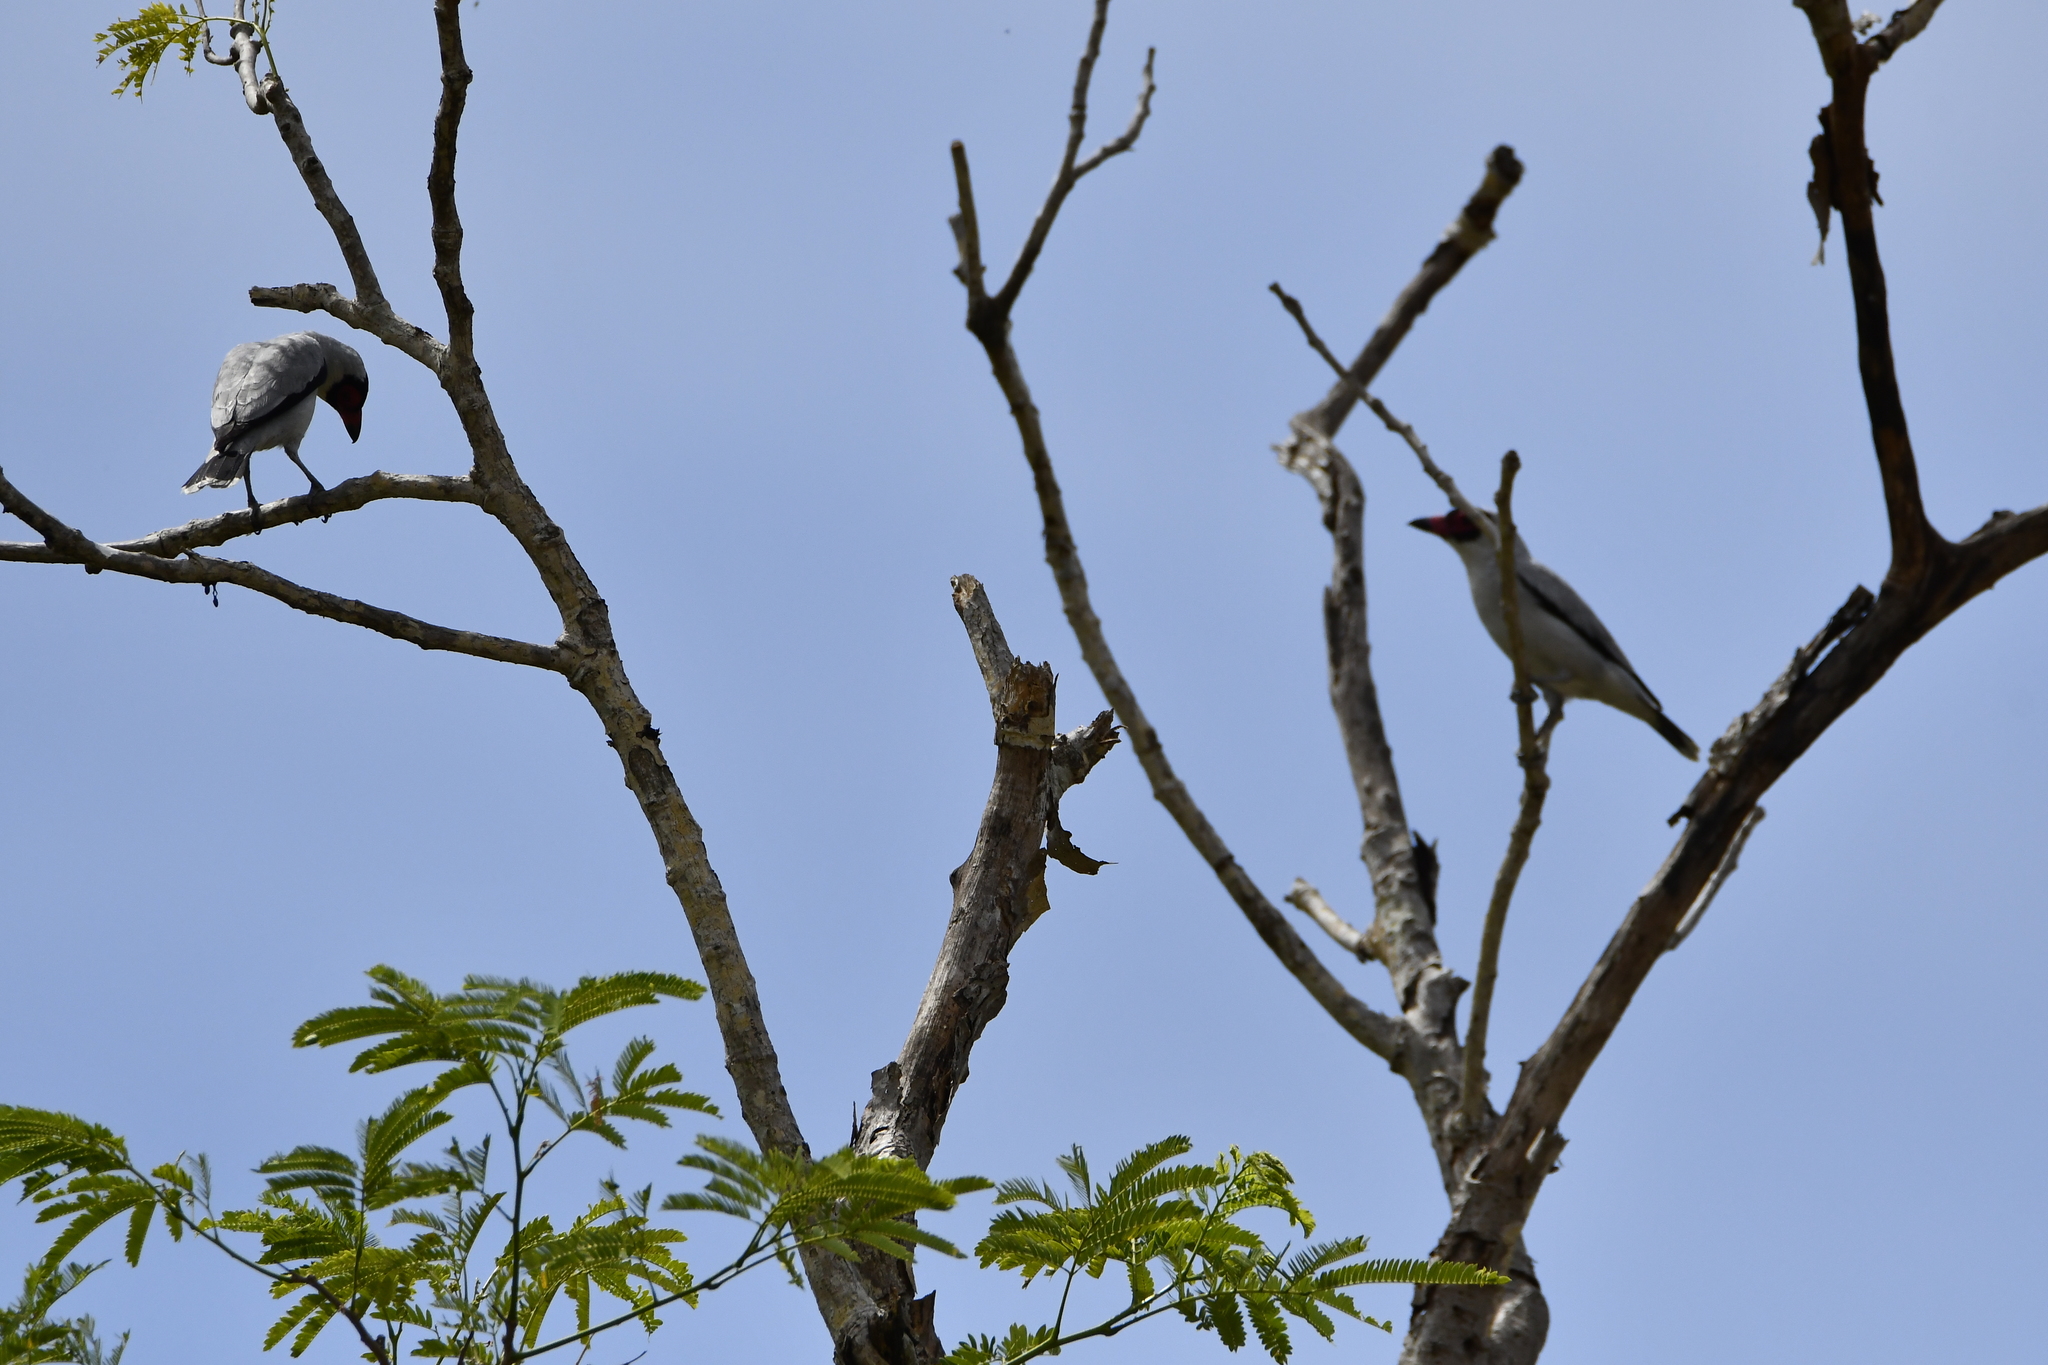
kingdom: Animalia
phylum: Chordata
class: Aves
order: Passeriformes
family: Cotingidae
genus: Tityra
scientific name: Tityra semifasciata
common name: Masked tityra
